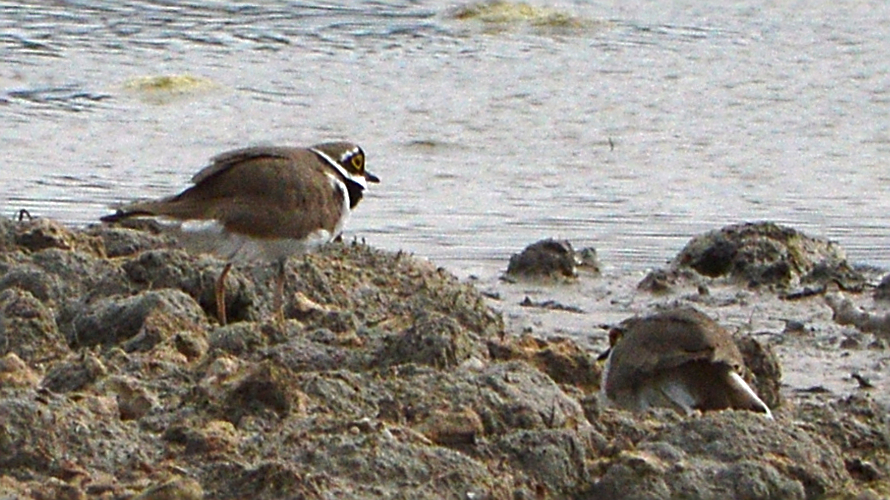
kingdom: Animalia
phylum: Chordata
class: Aves
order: Charadriiformes
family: Charadriidae
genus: Charadrius
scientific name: Charadrius dubius
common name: Little ringed plover
